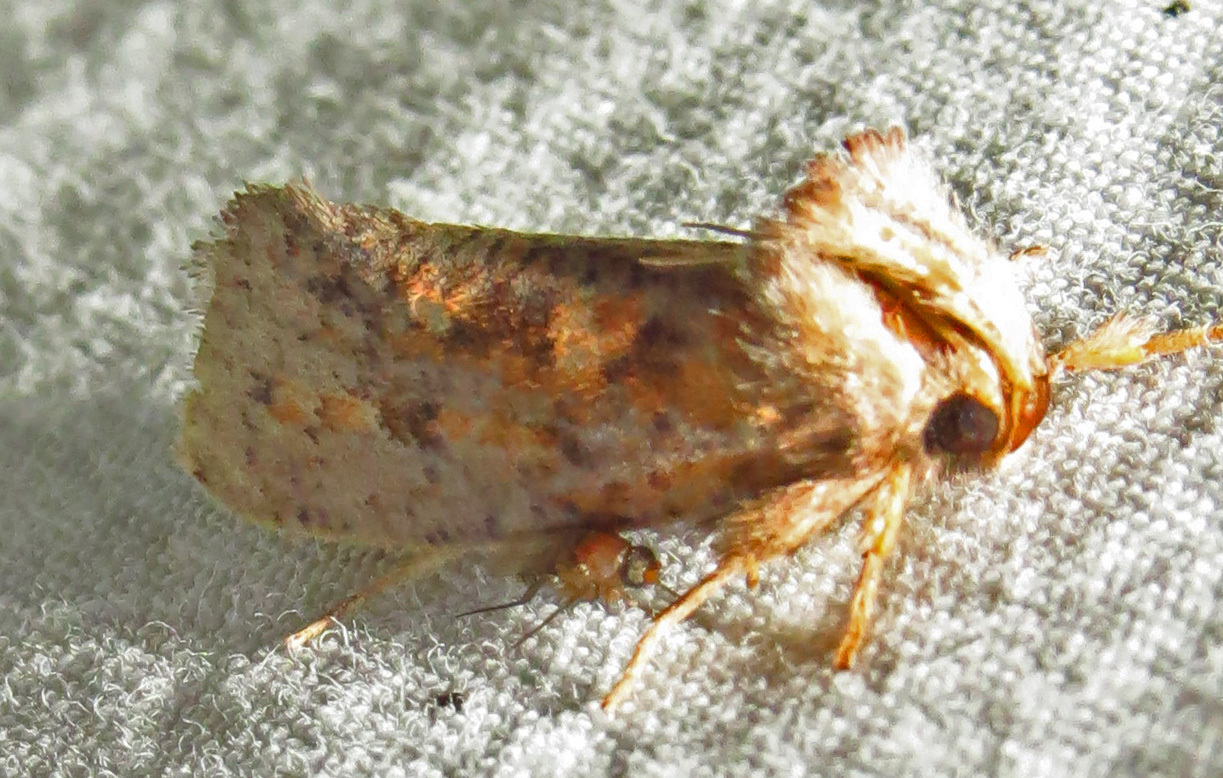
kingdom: Animalia
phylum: Arthropoda
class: Insecta
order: Lepidoptera
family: Tineidae
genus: Acrolophus
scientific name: Acrolophus plumifrontella
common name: Eastern grass tubeworm moth
